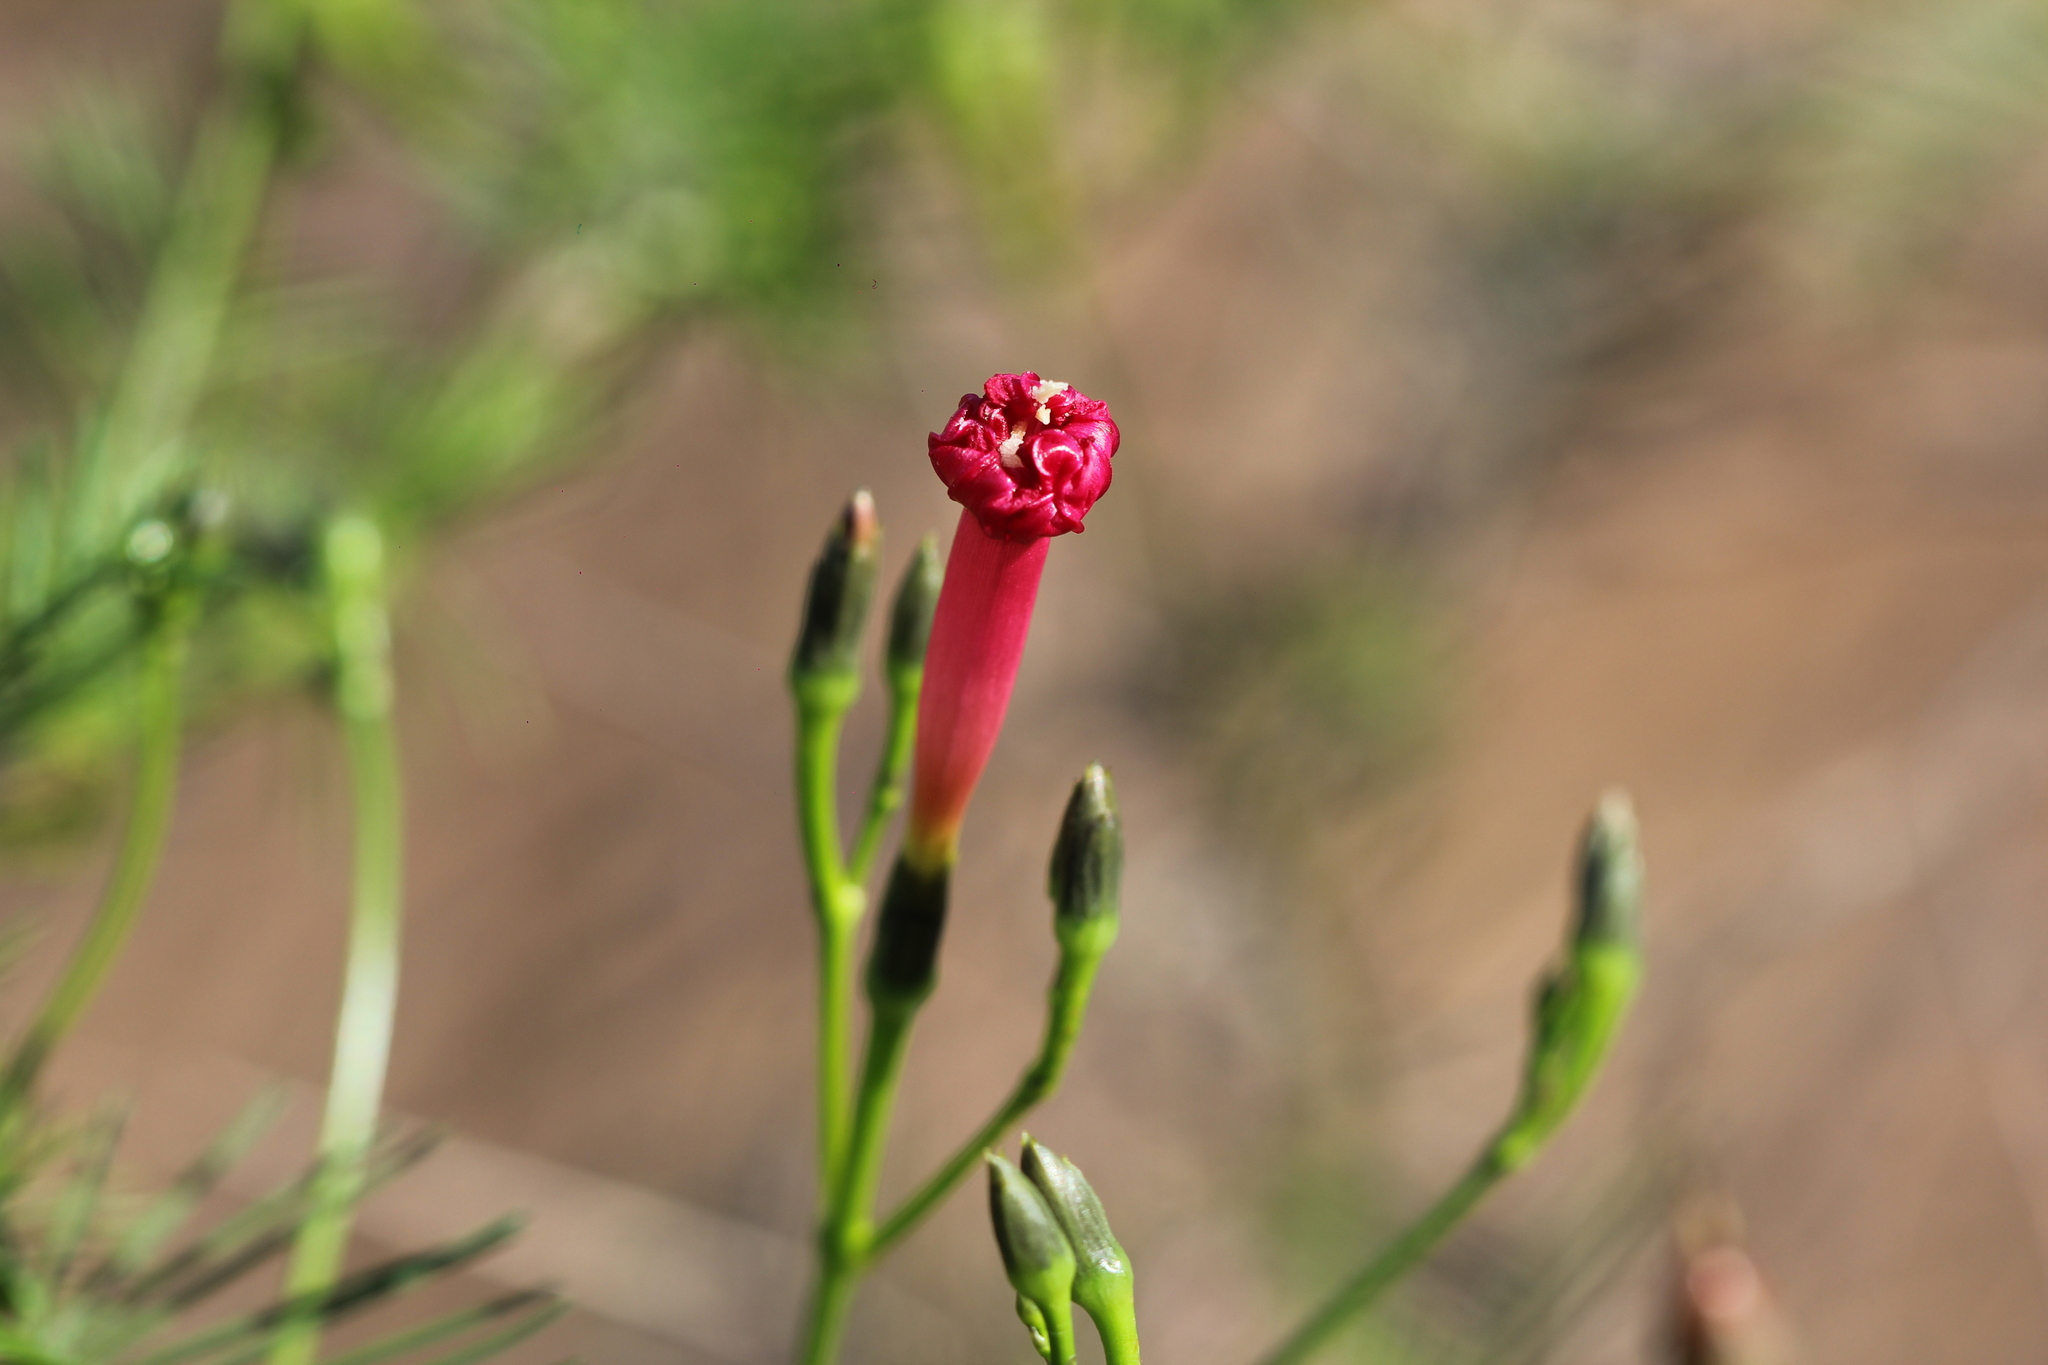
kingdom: Plantae
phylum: Tracheophyta
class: Magnoliopsida
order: Solanales
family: Convolvulaceae
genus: Ipomoea
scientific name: Ipomoea quamoclit
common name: Cypress vine
